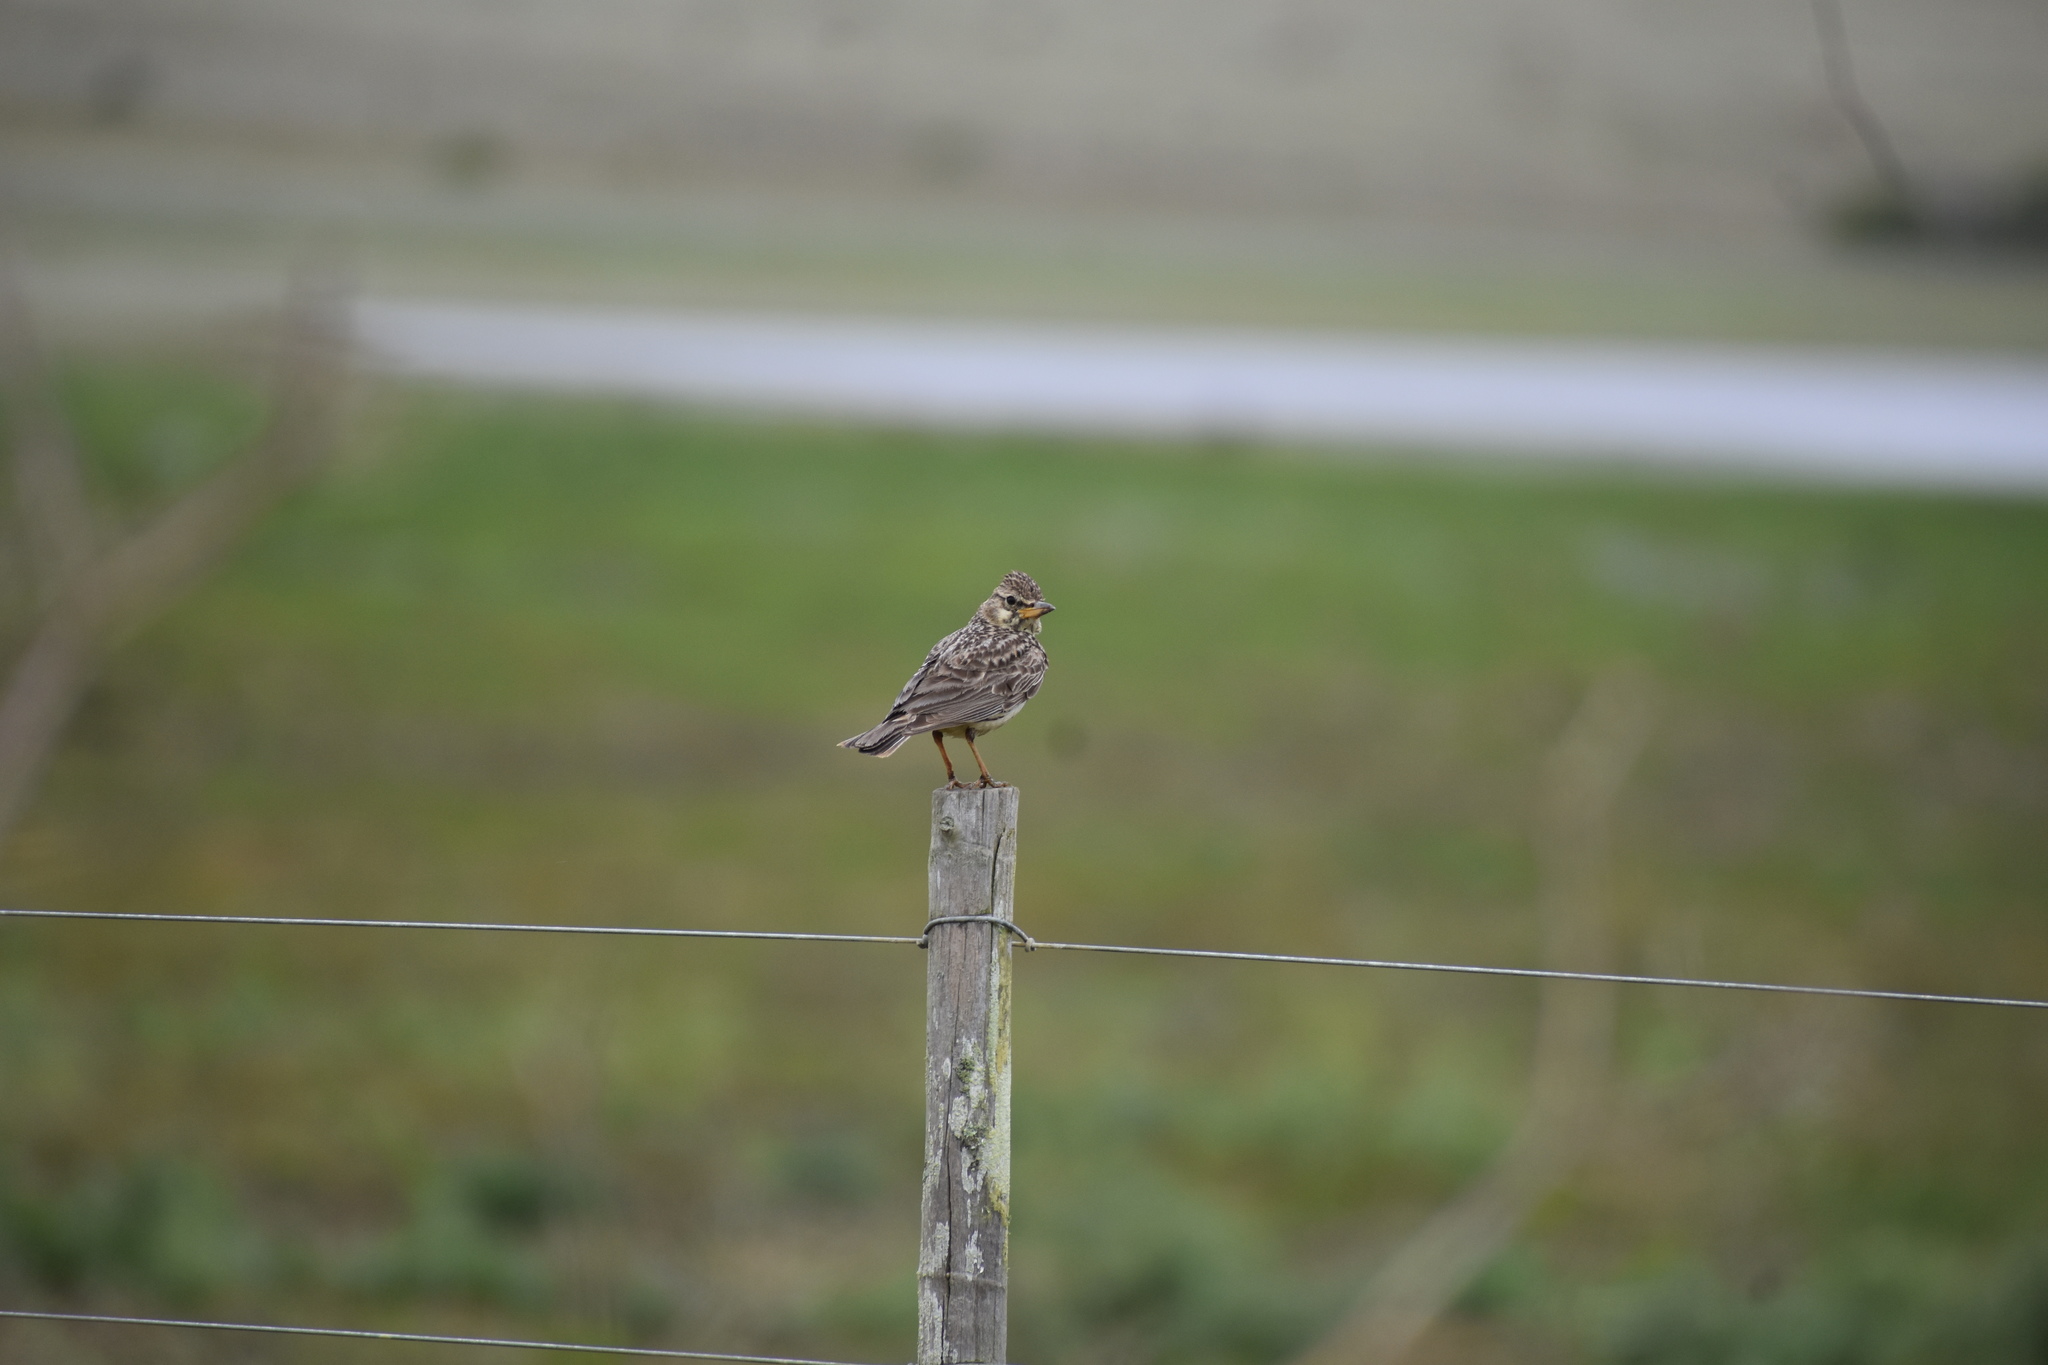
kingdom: Animalia
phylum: Chordata
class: Aves
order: Passeriformes
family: Alaudidae
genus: Galerida
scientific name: Galerida magnirostris
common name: Large-billed lark
